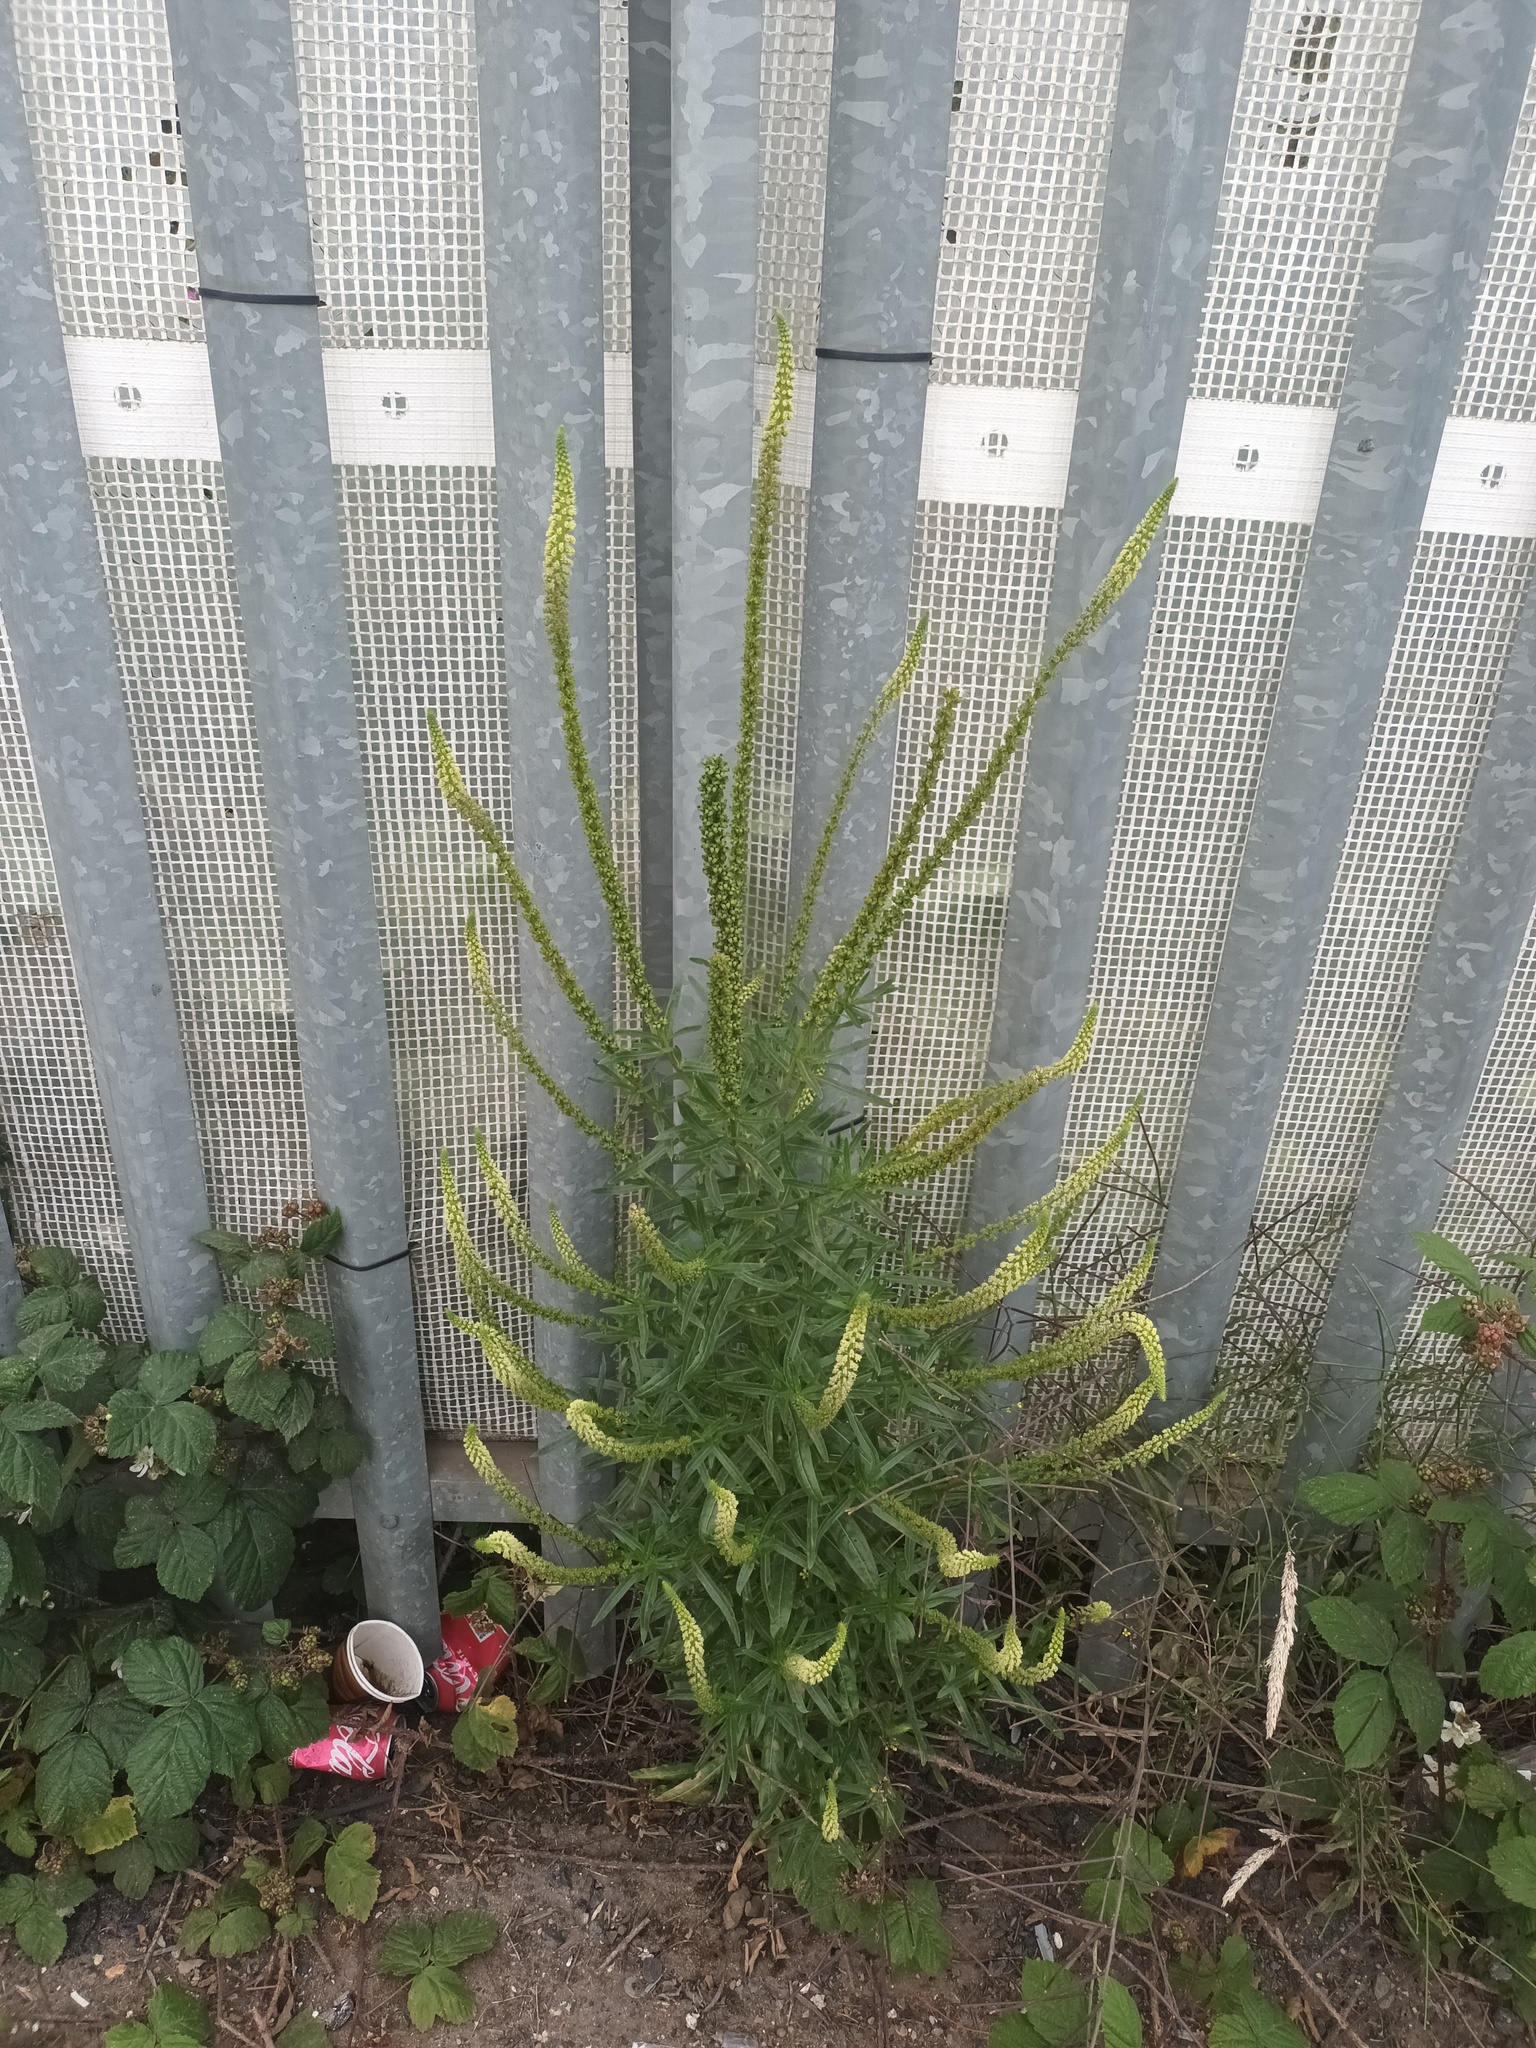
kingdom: Plantae
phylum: Tracheophyta
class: Magnoliopsida
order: Brassicales
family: Resedaceae
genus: Reseda
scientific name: Reseda luteola
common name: Weld
